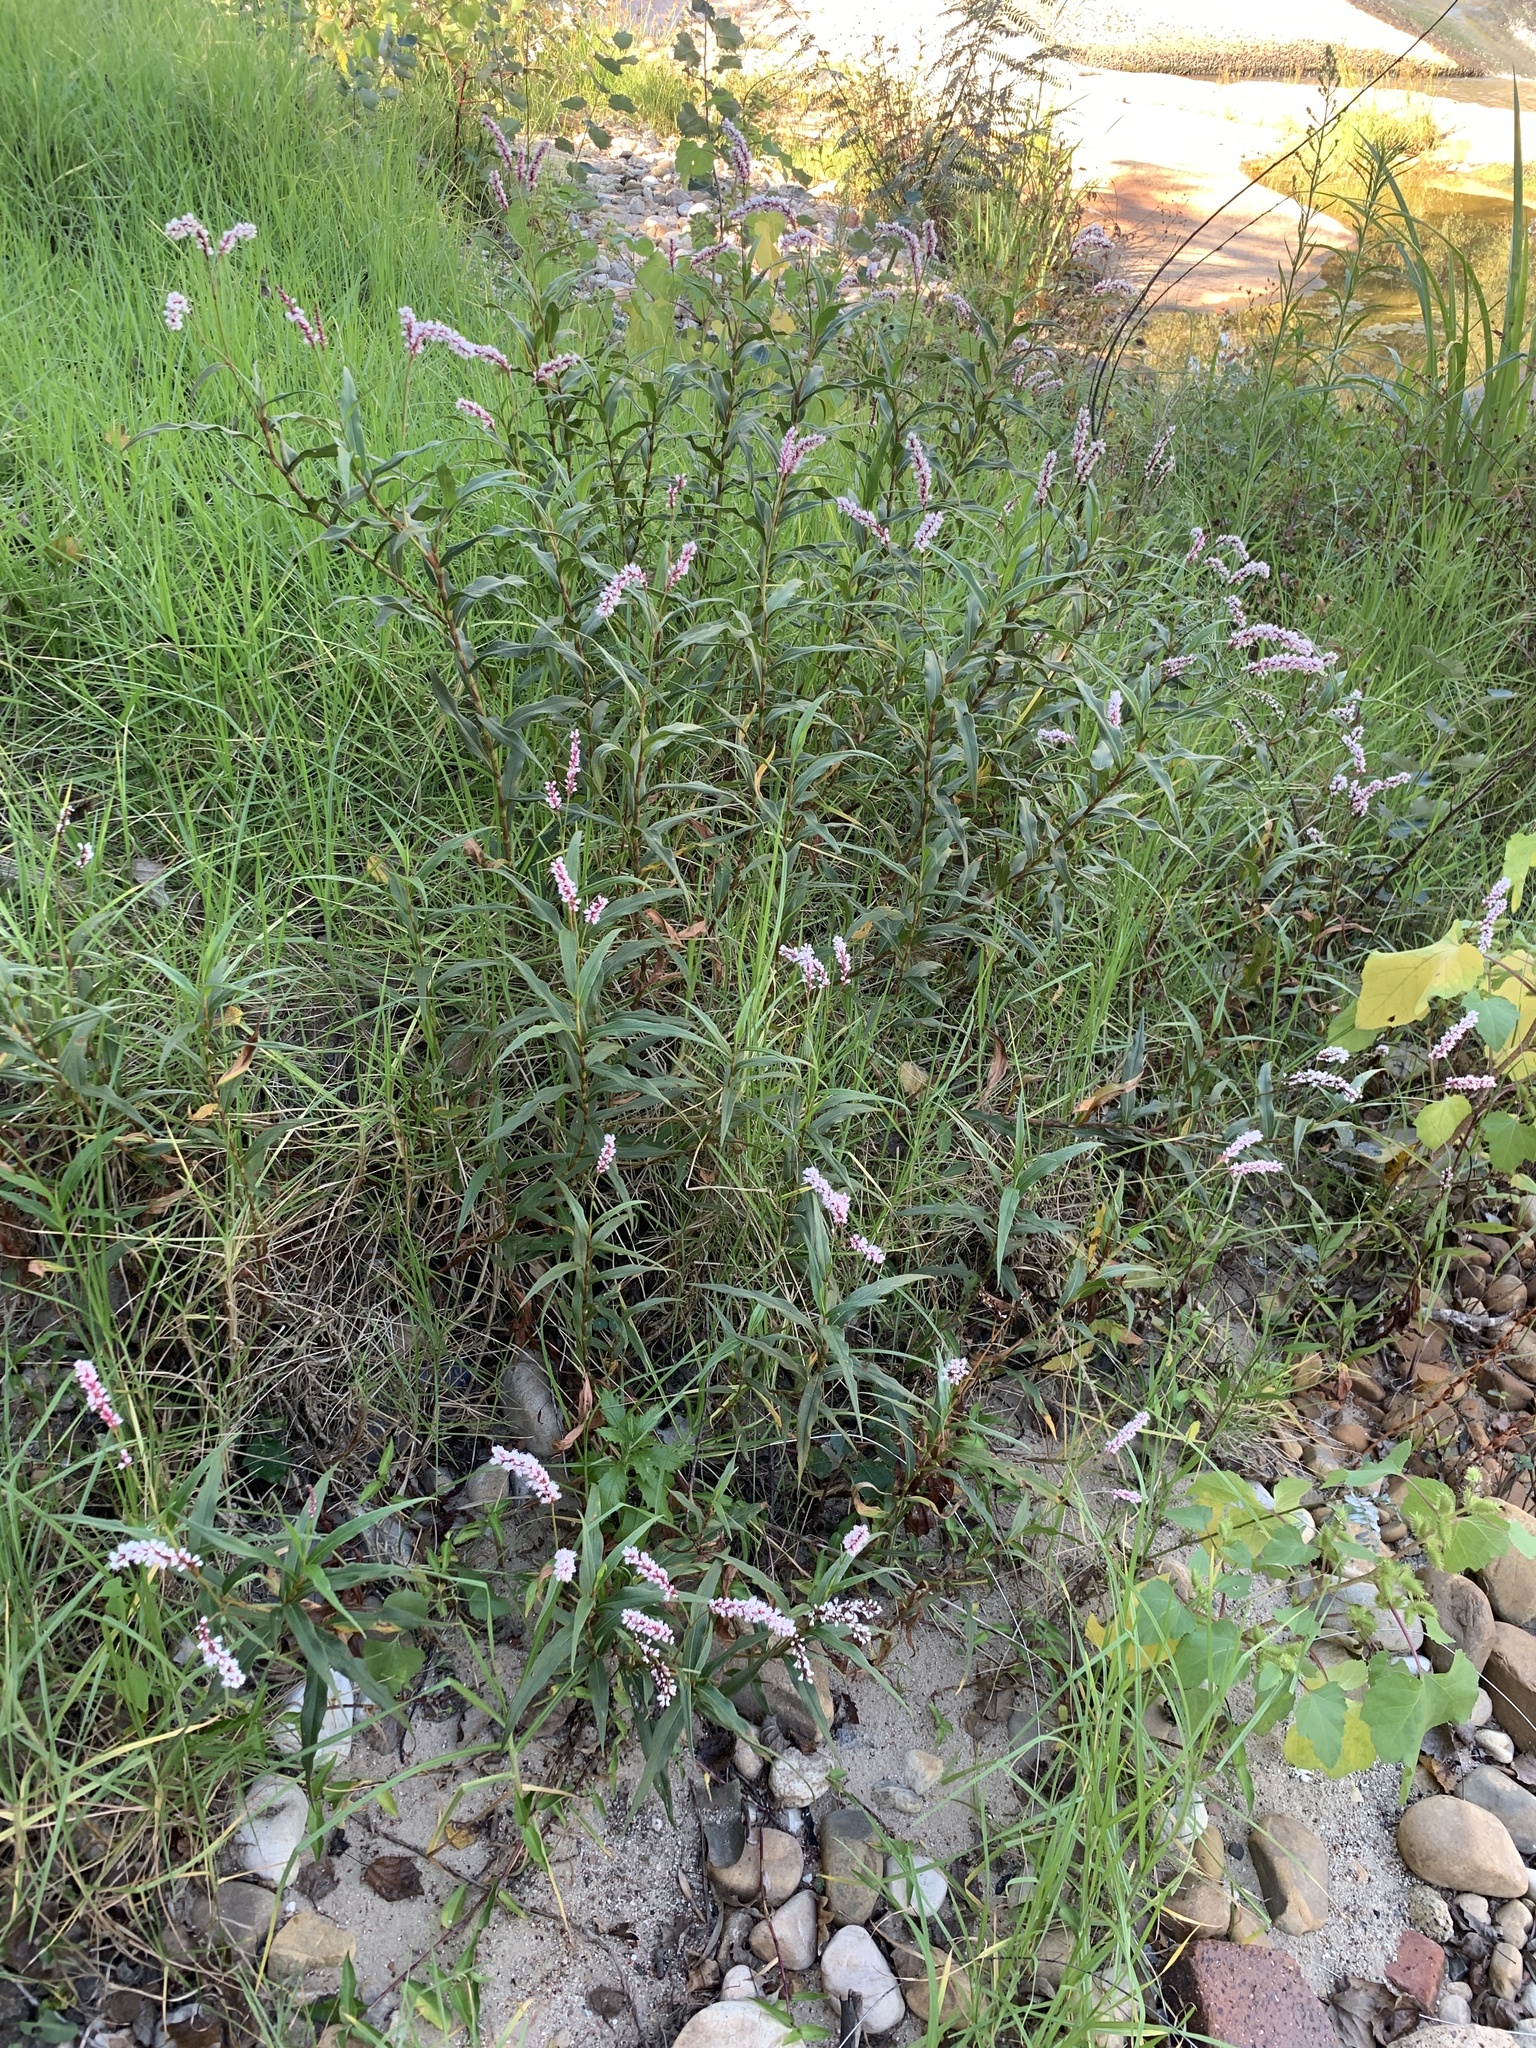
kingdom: Plantae
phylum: Tracheophyta
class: Magnoliopsida
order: Caryophyllales
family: Polygonaceae
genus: Persicaria
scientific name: Persicaria madagascariensis
